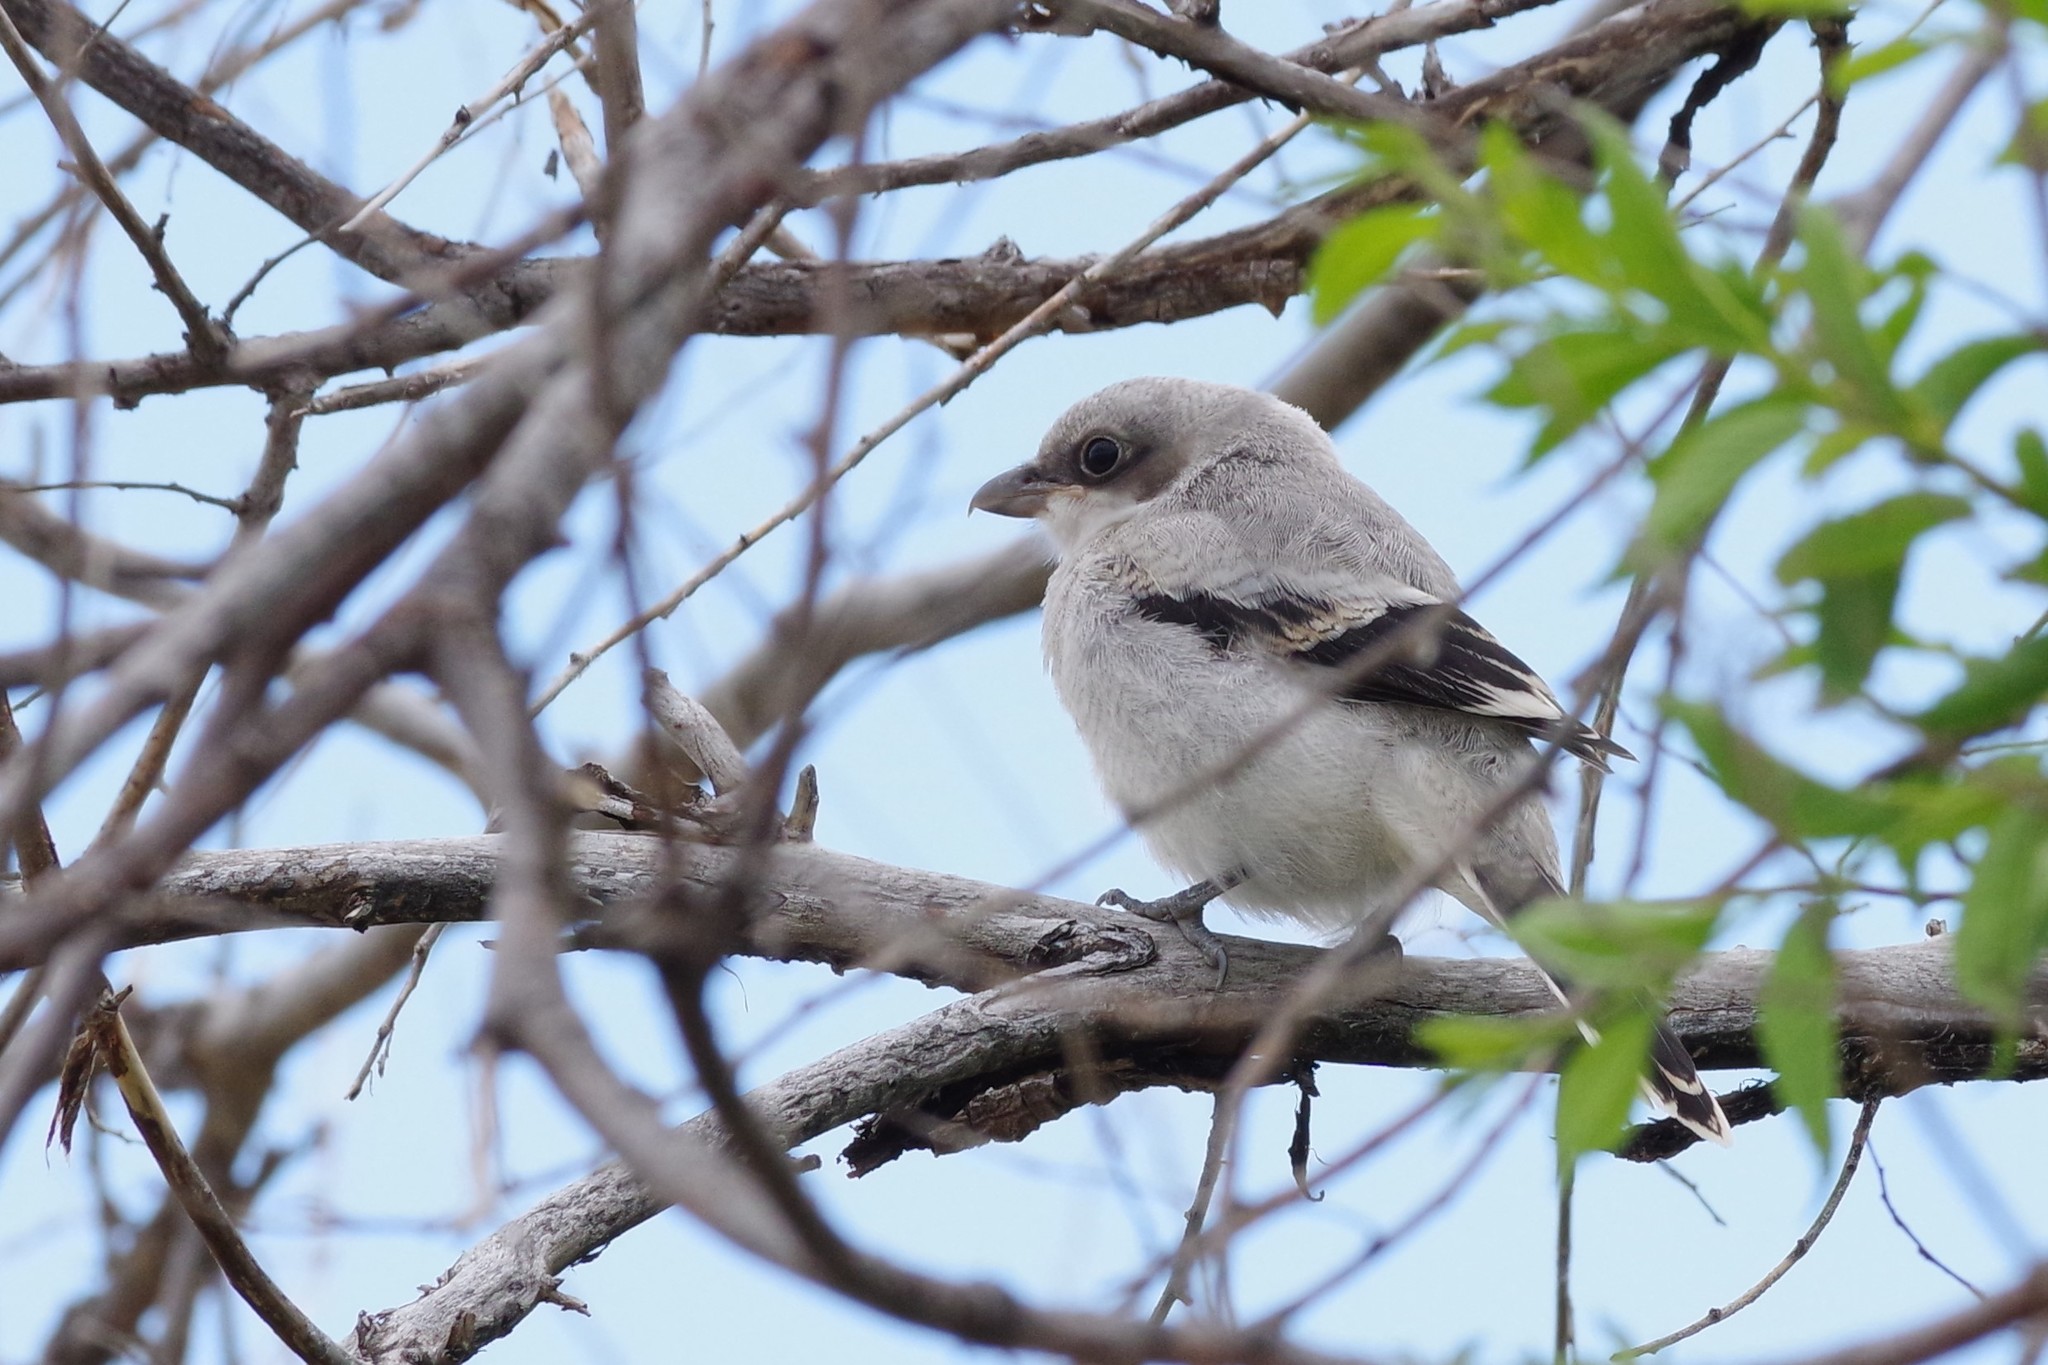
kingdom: Animalia
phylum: Chordata
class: Aves
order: Passeriformes
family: Laniidae
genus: Lanius
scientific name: Lanius ludovicianus
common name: Loggerhead shrike
